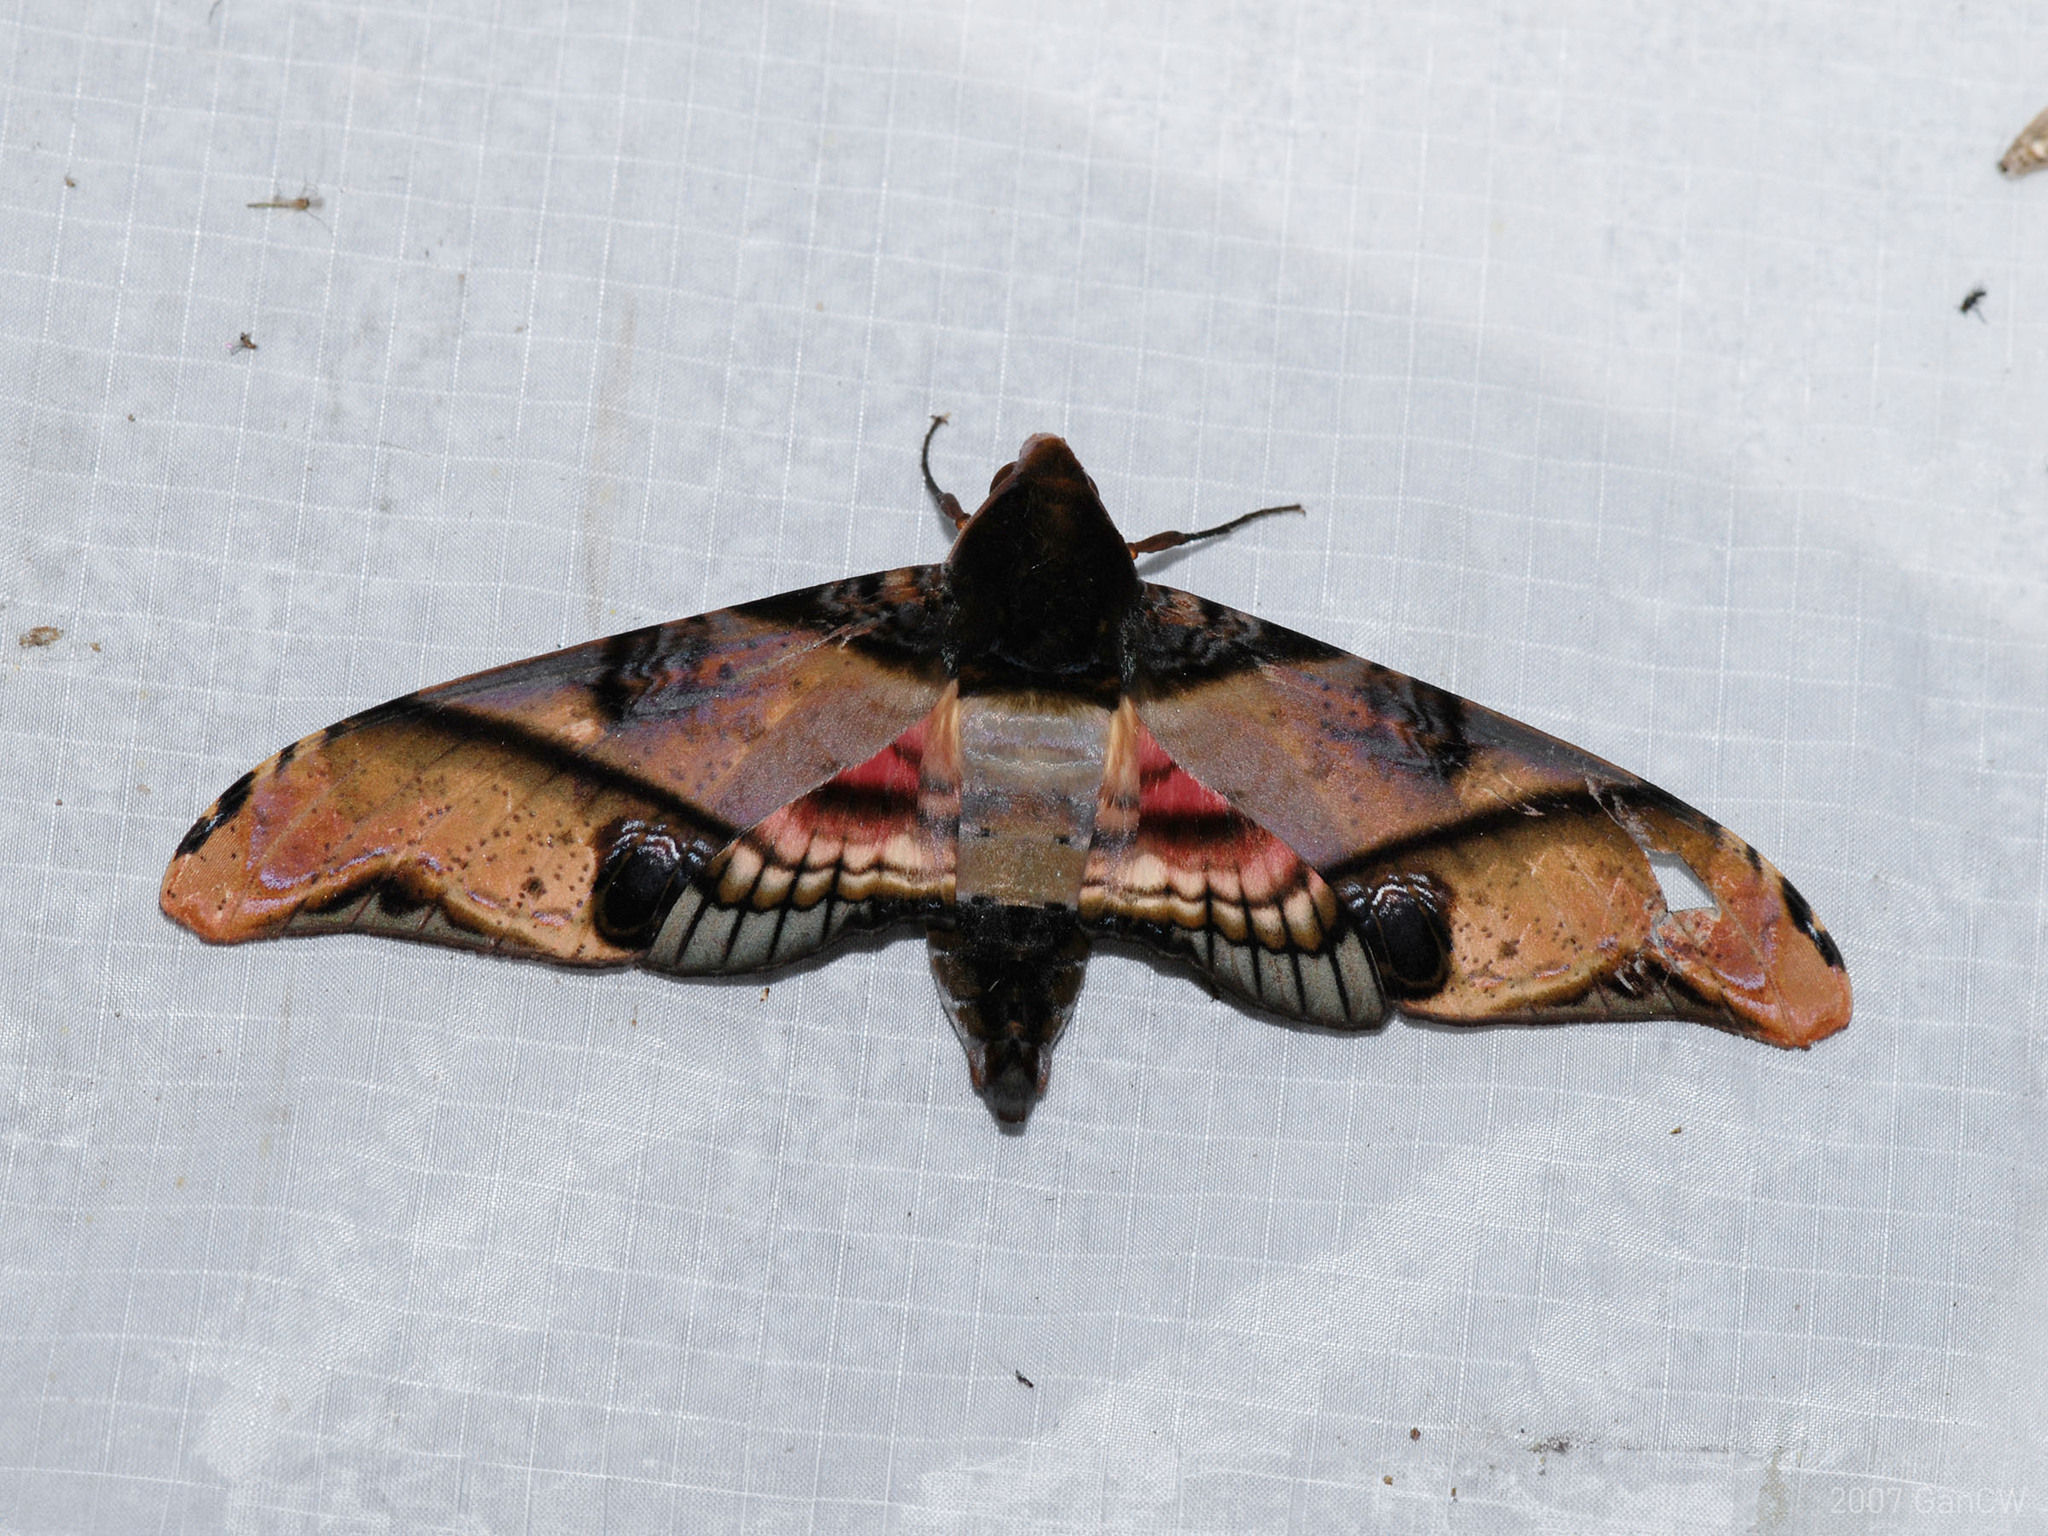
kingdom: Animalia
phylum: Arthropoda
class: Insecta
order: Lepidoptera
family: Sphingidae
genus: Amplypterus
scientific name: Amplypterus panopus
